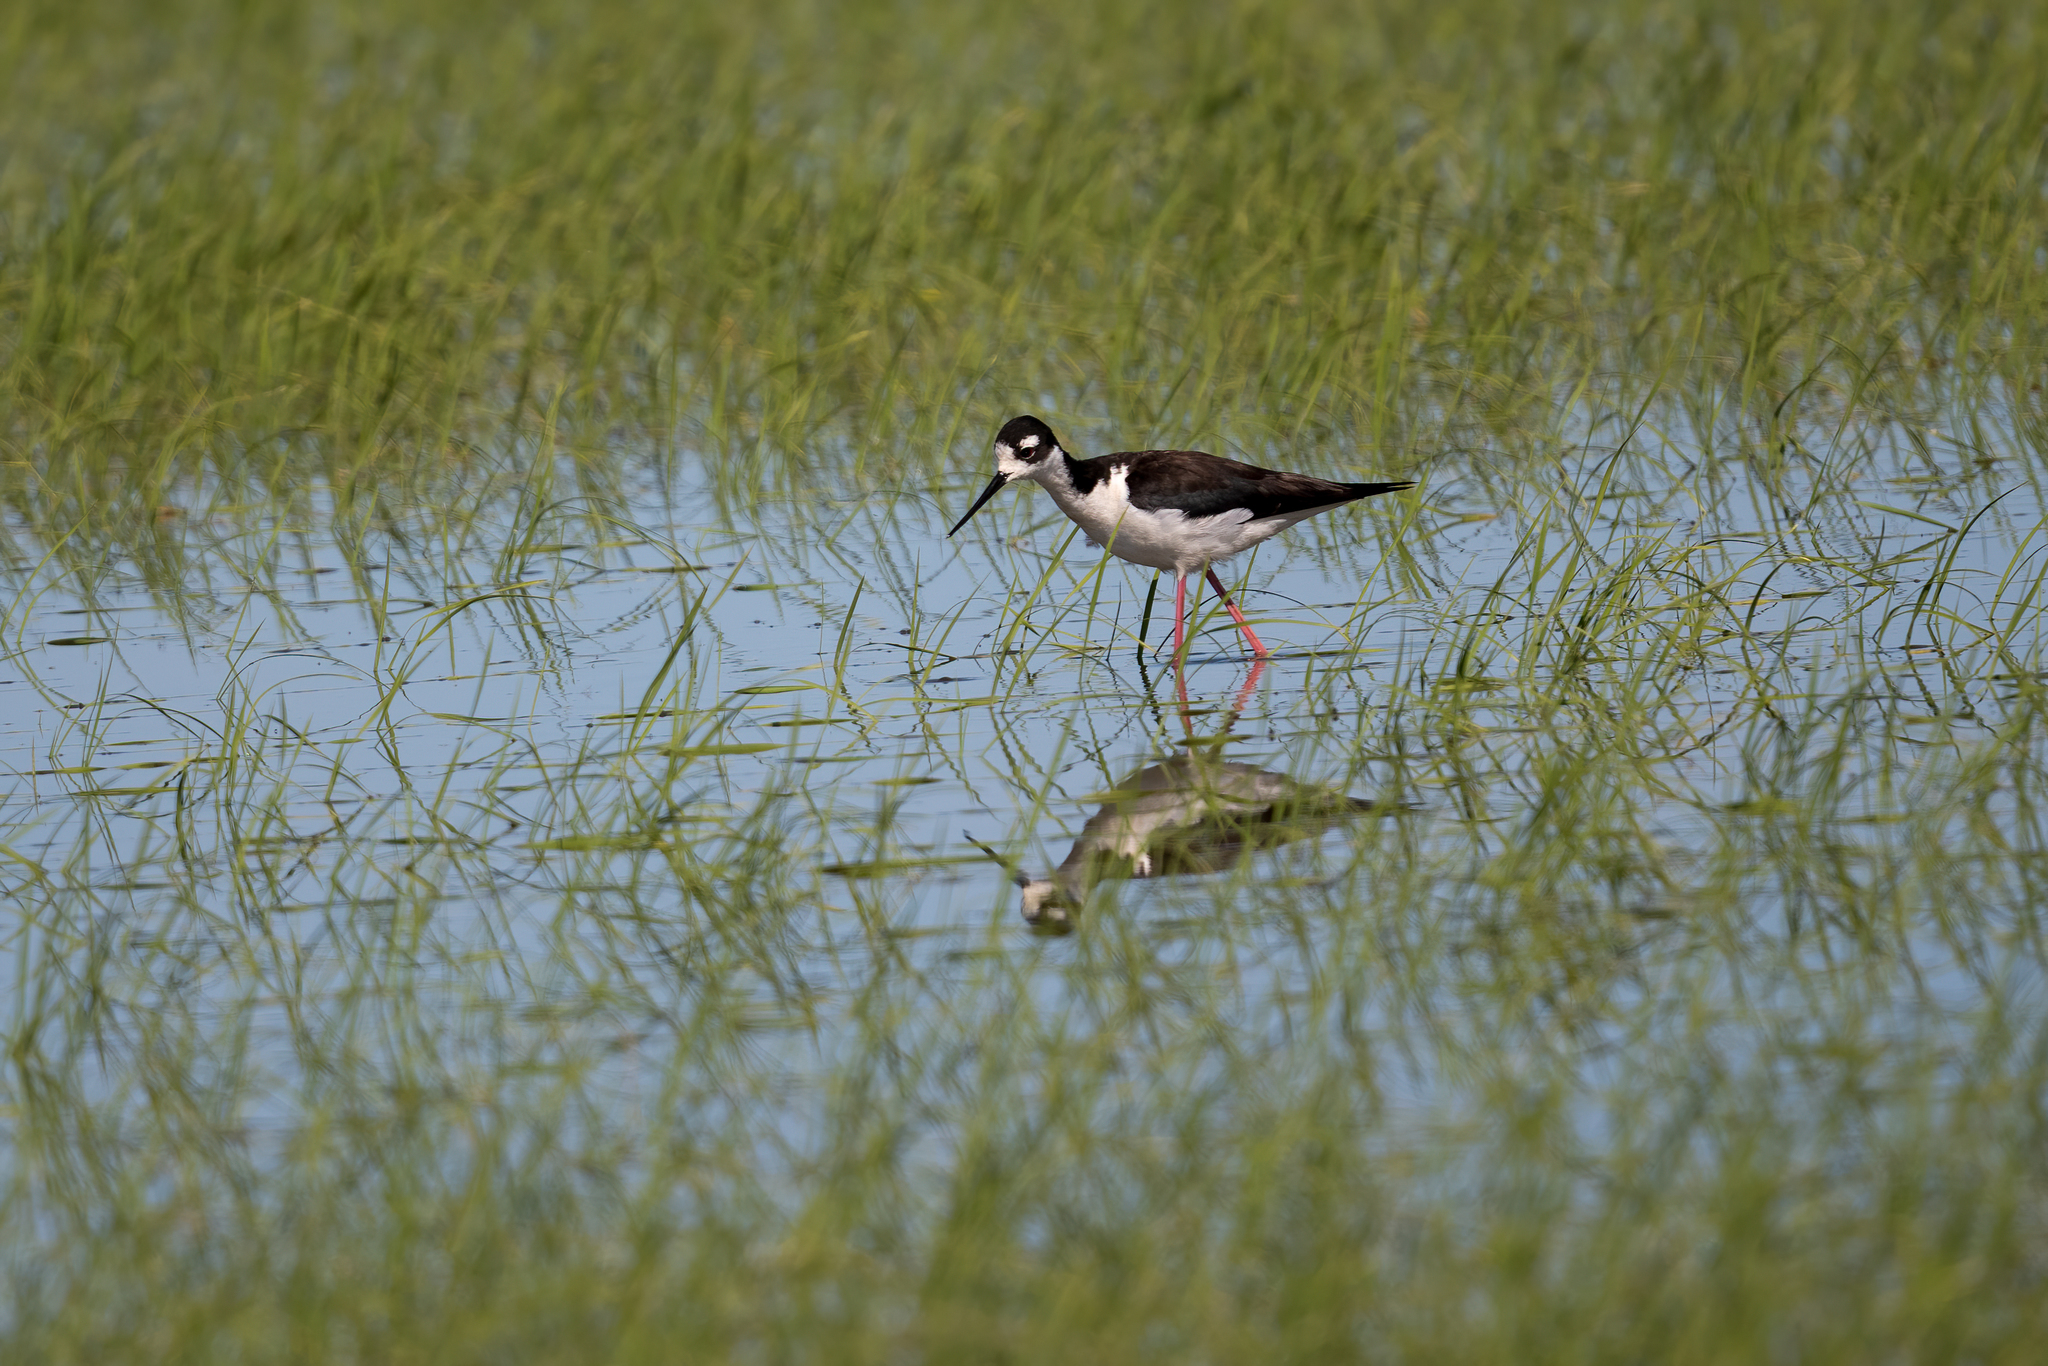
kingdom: Animalia
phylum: Chordata
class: Aves
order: Charadriiformes
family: Recurvirostridae
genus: Himantopus
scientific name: Himantopus mexicanus
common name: Black-necked stilt
